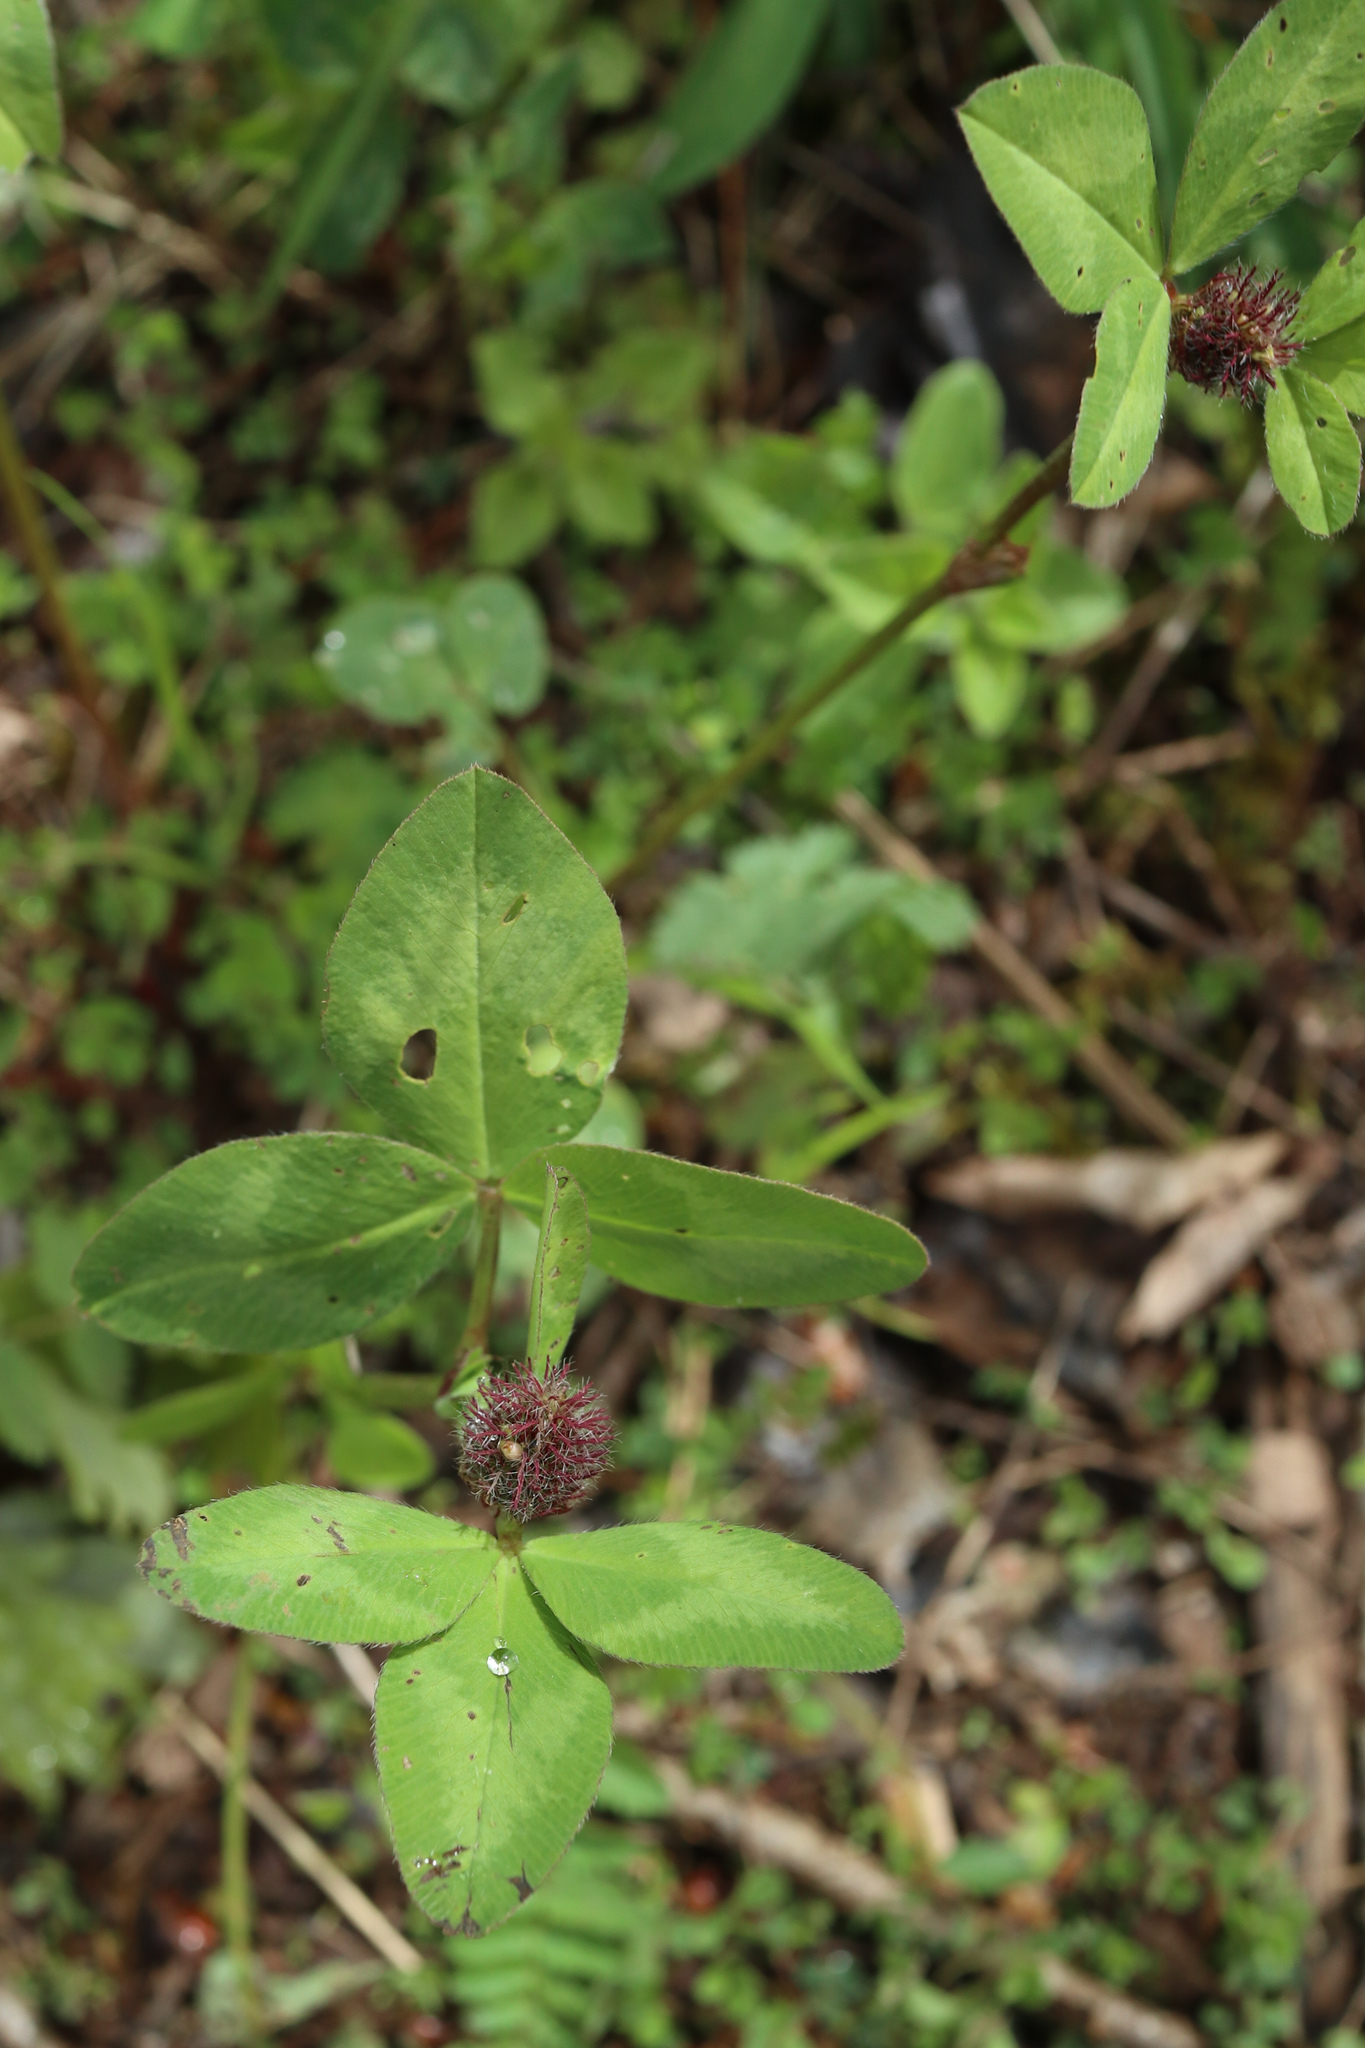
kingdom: Plantae
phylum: Tracheophyta
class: Magnoliopsida
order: Fabales
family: Fabaceae
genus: Trifolium
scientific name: Trifolium pratense
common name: Red clover
